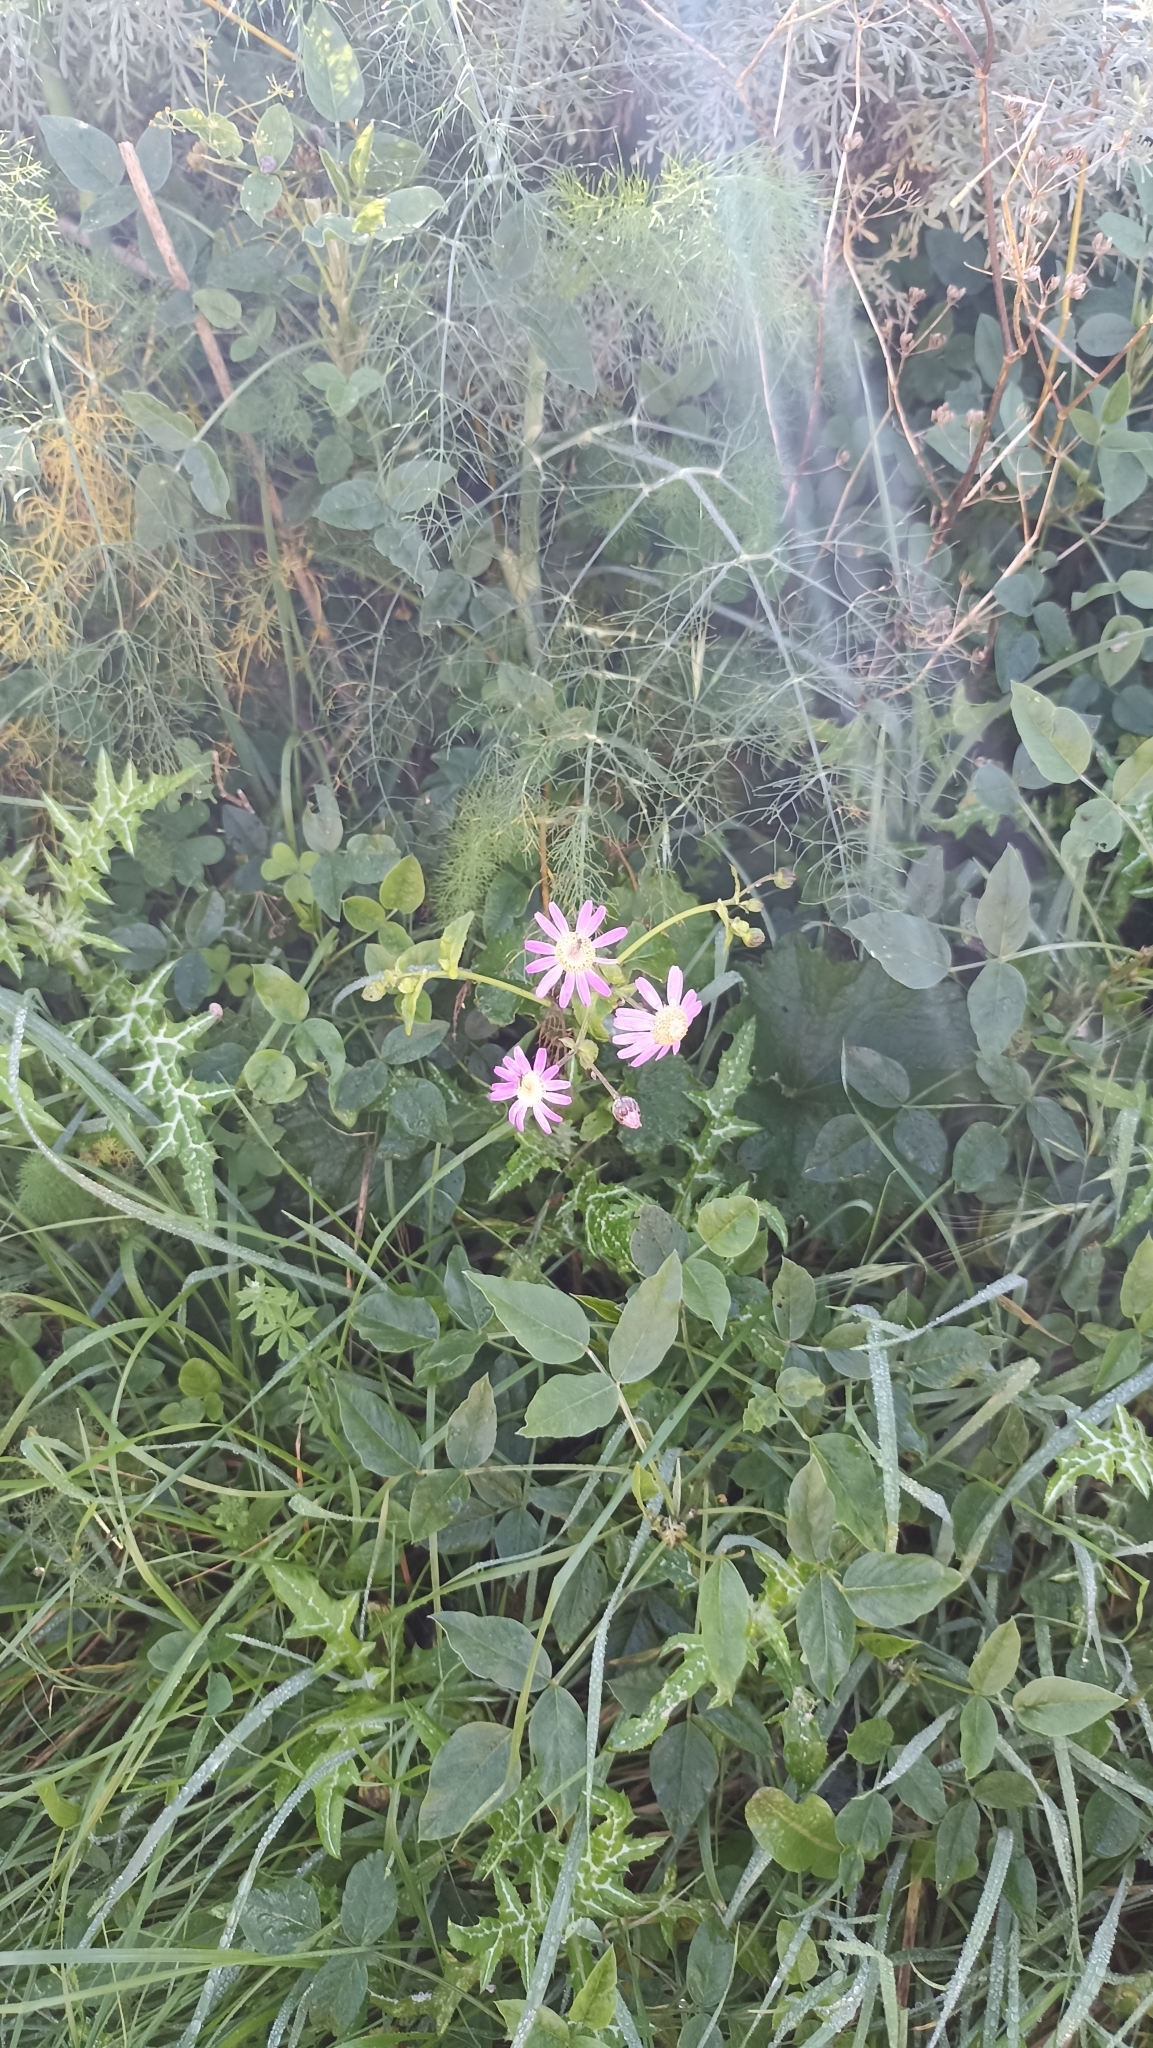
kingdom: Plantae
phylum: Tracheophyta
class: Magnoliopsida
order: Asterales
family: Asteraceae
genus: Pericallis
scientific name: Pericallis tussilaginis
